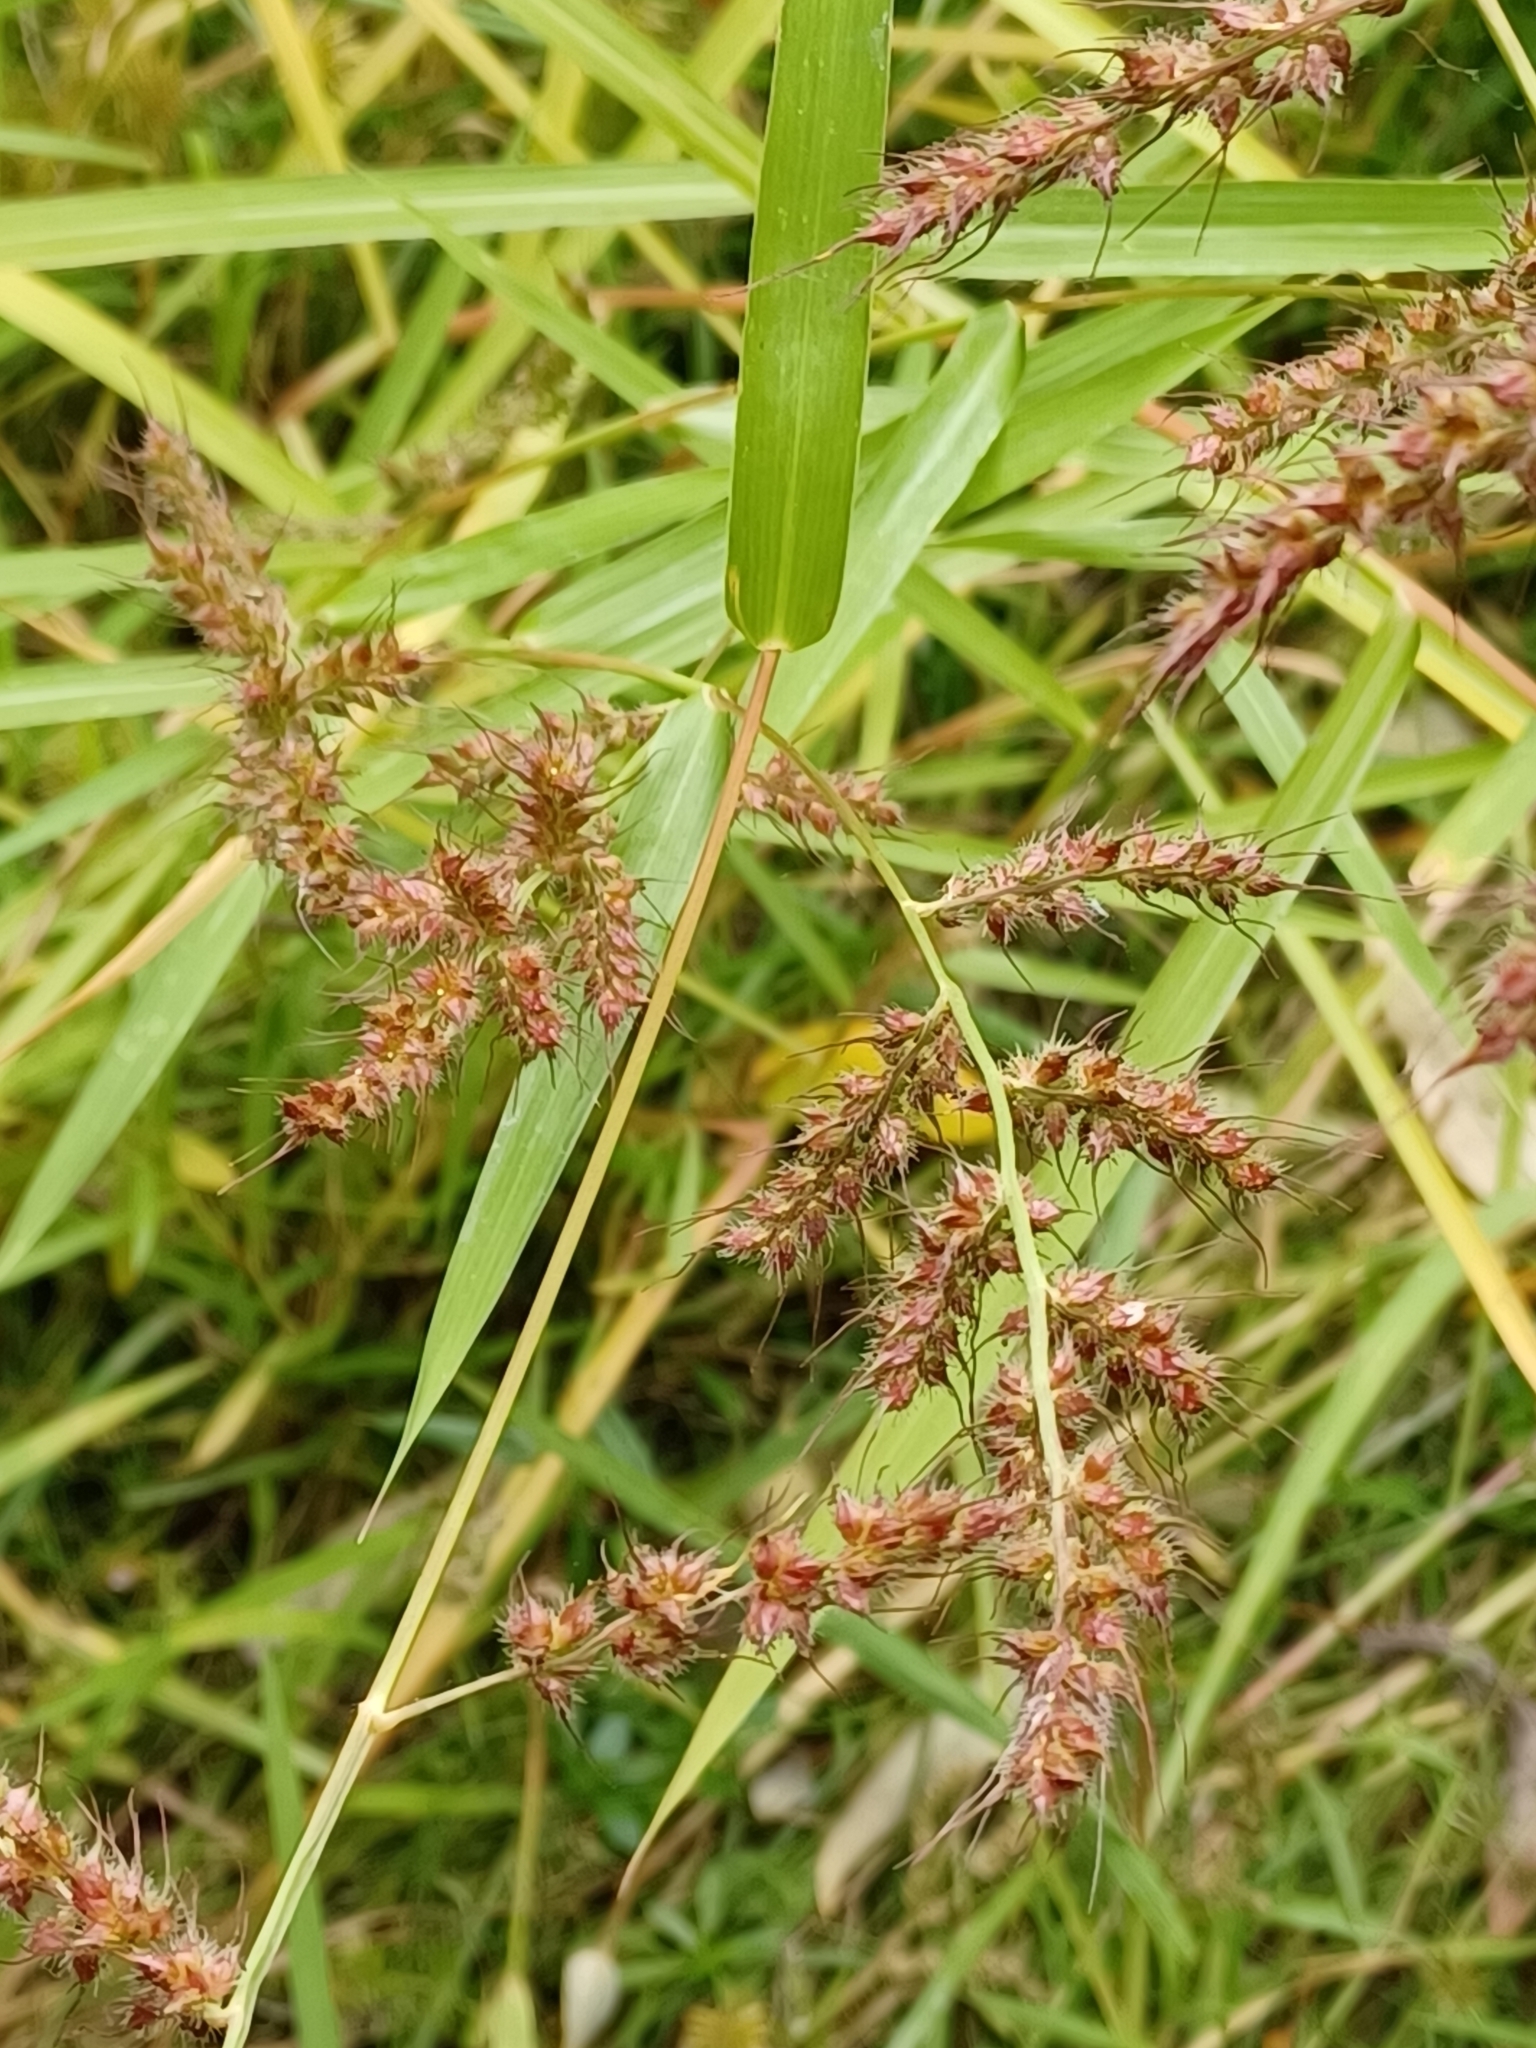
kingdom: Plantae
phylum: Tracheophyta
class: Liliopsida
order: Poales
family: Poaceae
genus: Echinochloa
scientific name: Echinochloa crus-galli
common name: Cockspur
